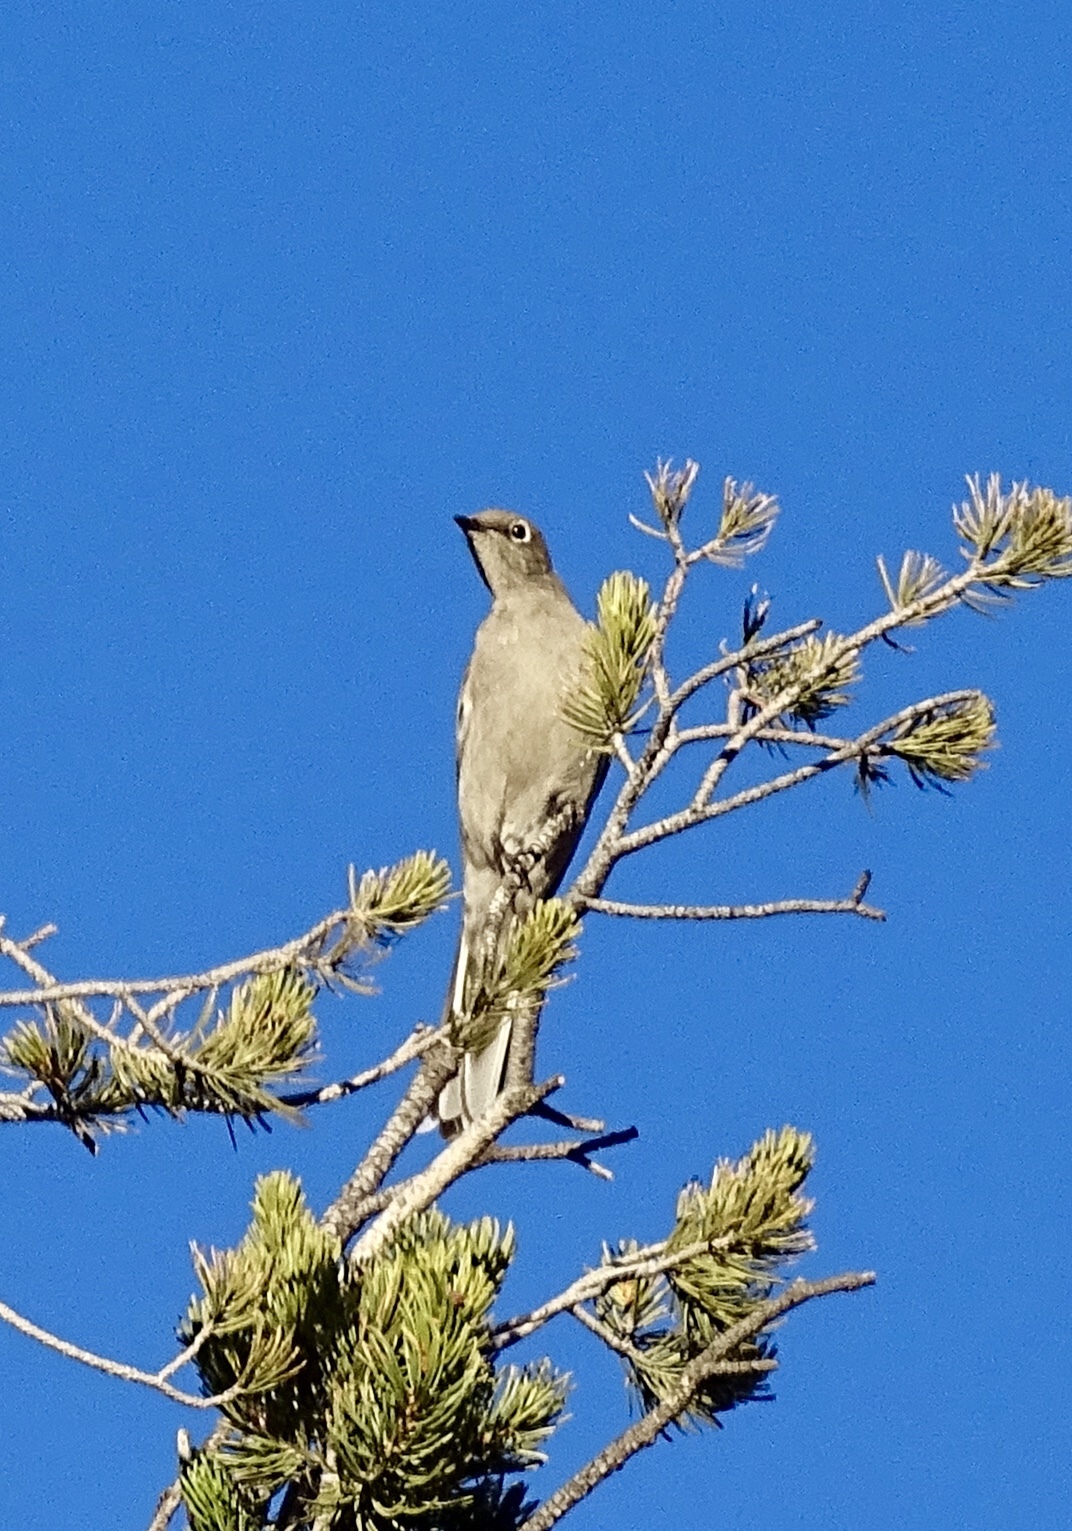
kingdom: Animalia
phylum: Chordata
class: Aves
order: Passeriformes
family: Turdidae
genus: Myadestes
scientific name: Myadestes townsendi
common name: Townsend's solitaire
